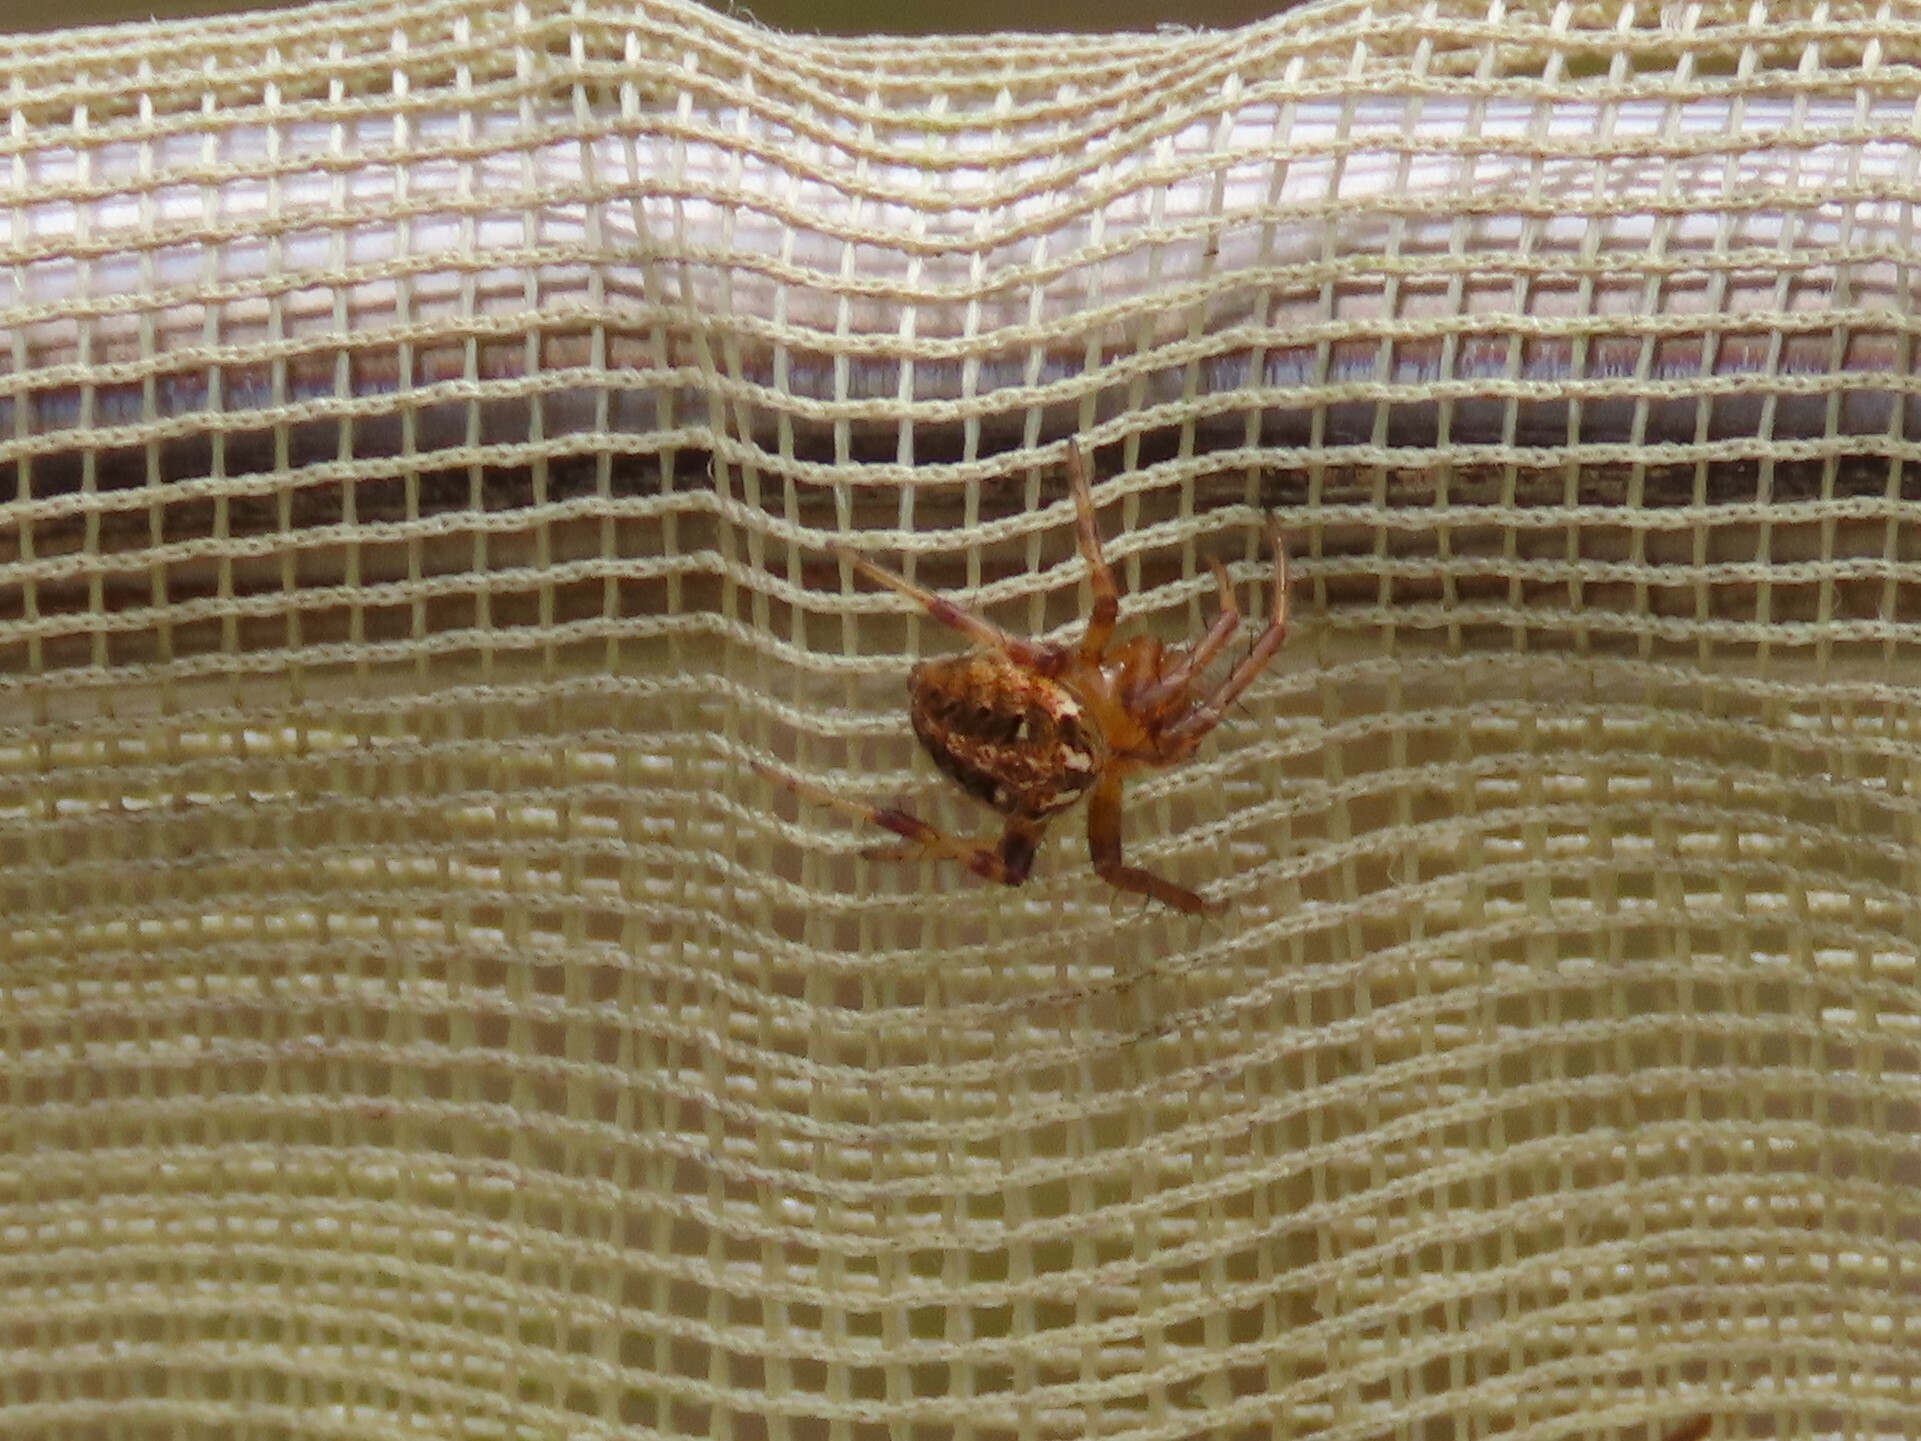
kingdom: Animalia
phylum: Arthropoda
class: Arachnida
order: Araneae
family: Araneidae
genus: Neoscona
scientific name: Neoscona arabesca
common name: Orb weavers
